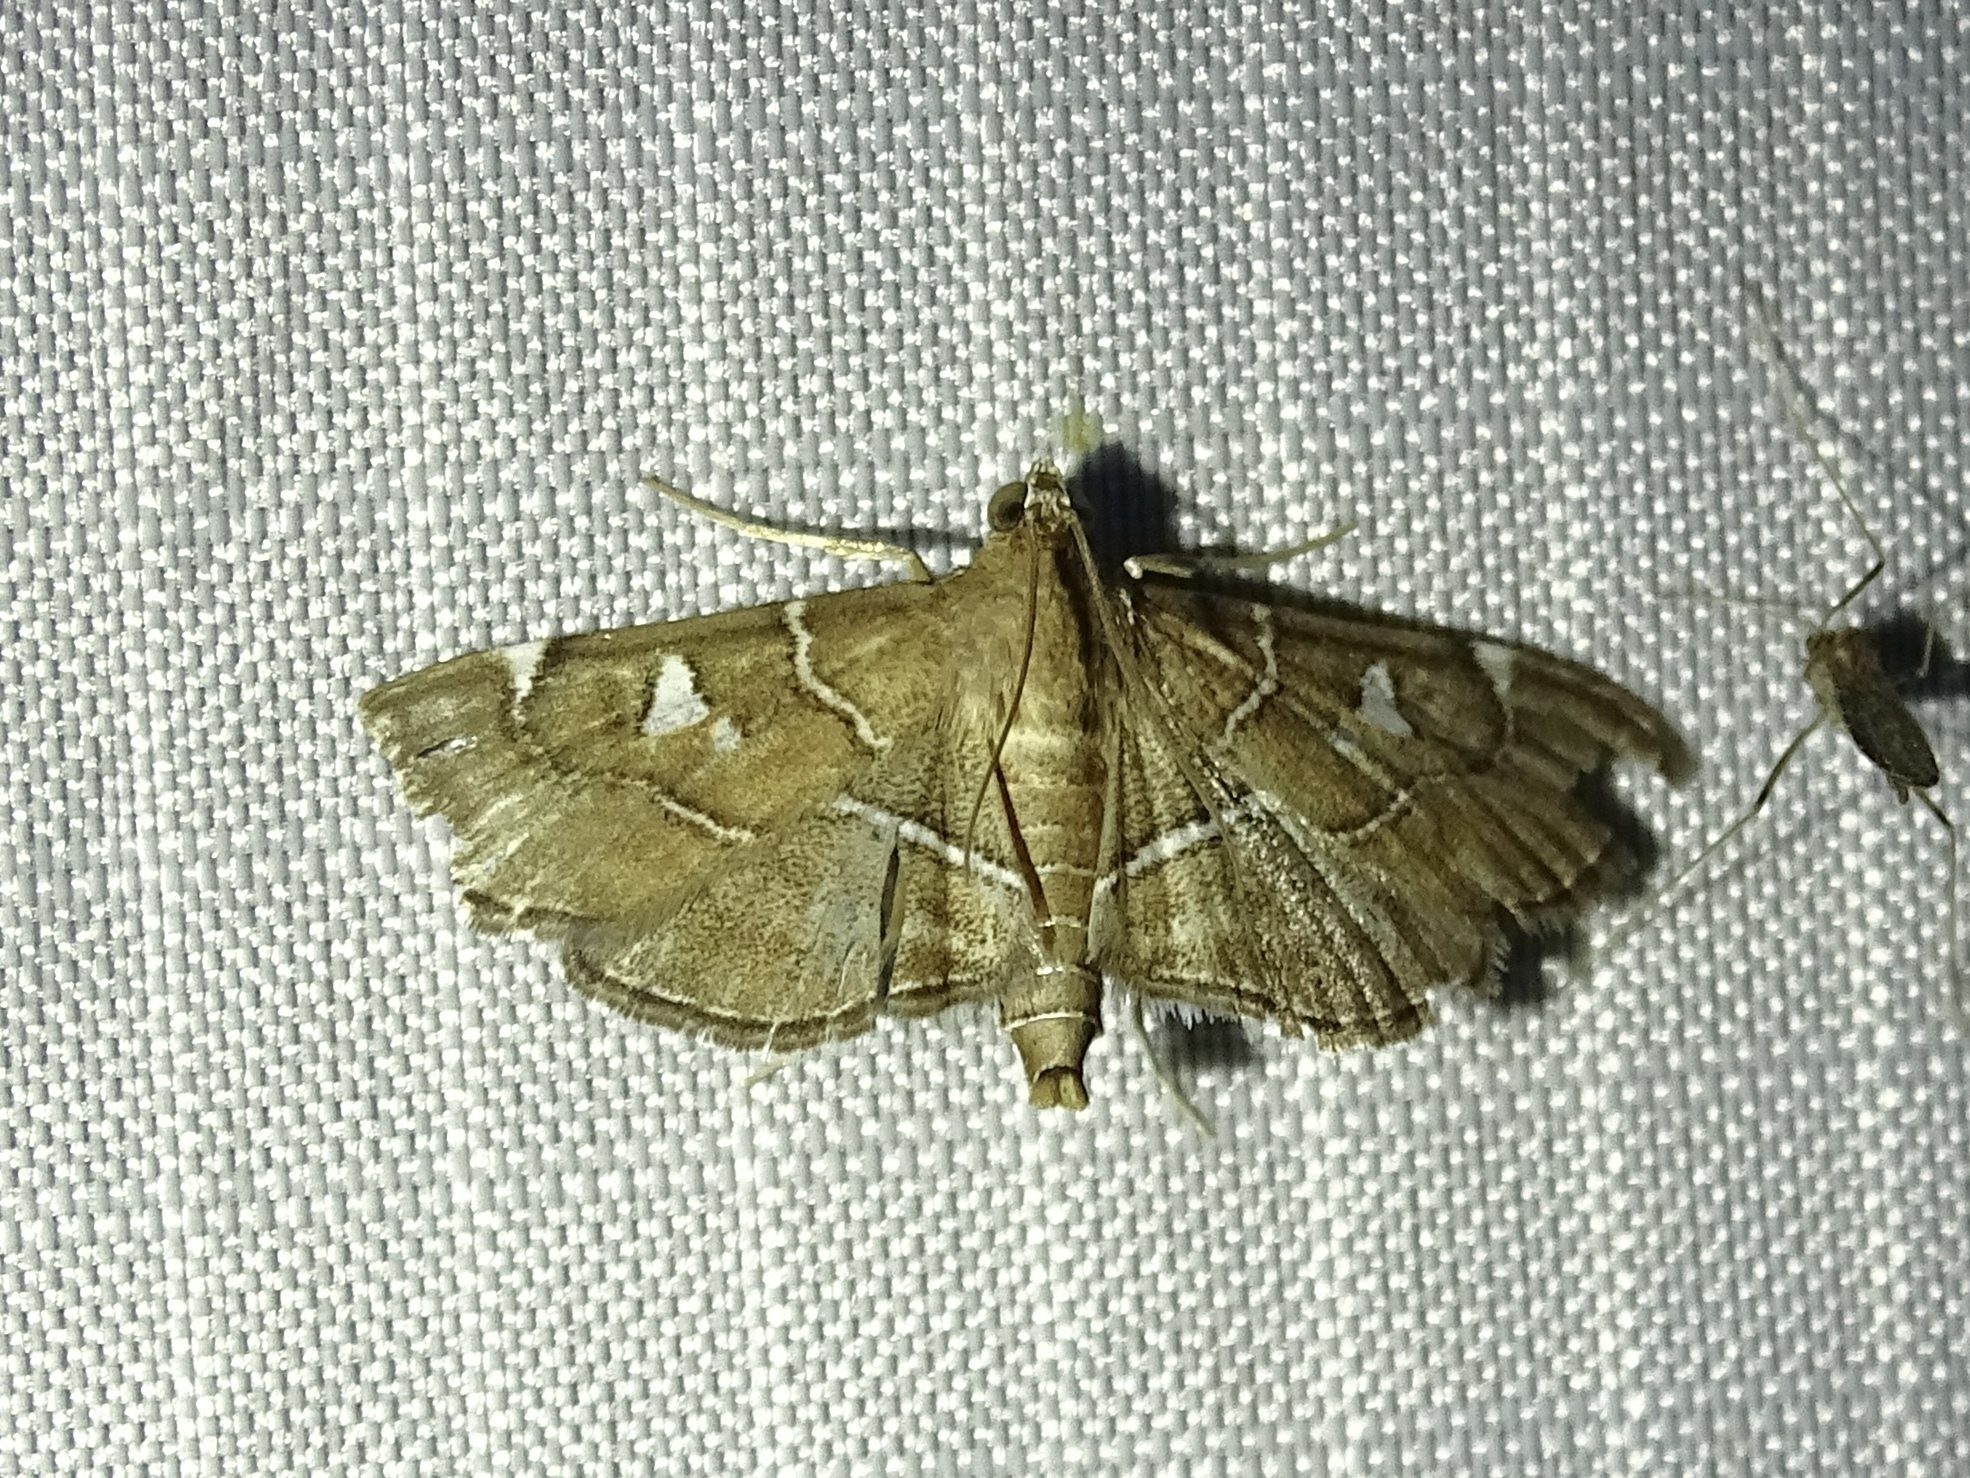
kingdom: Animalia
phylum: Arthropoda
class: Insecta
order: Lepidoptera
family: Crambidae
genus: Lamprosema
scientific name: Lamprosema victoriae
